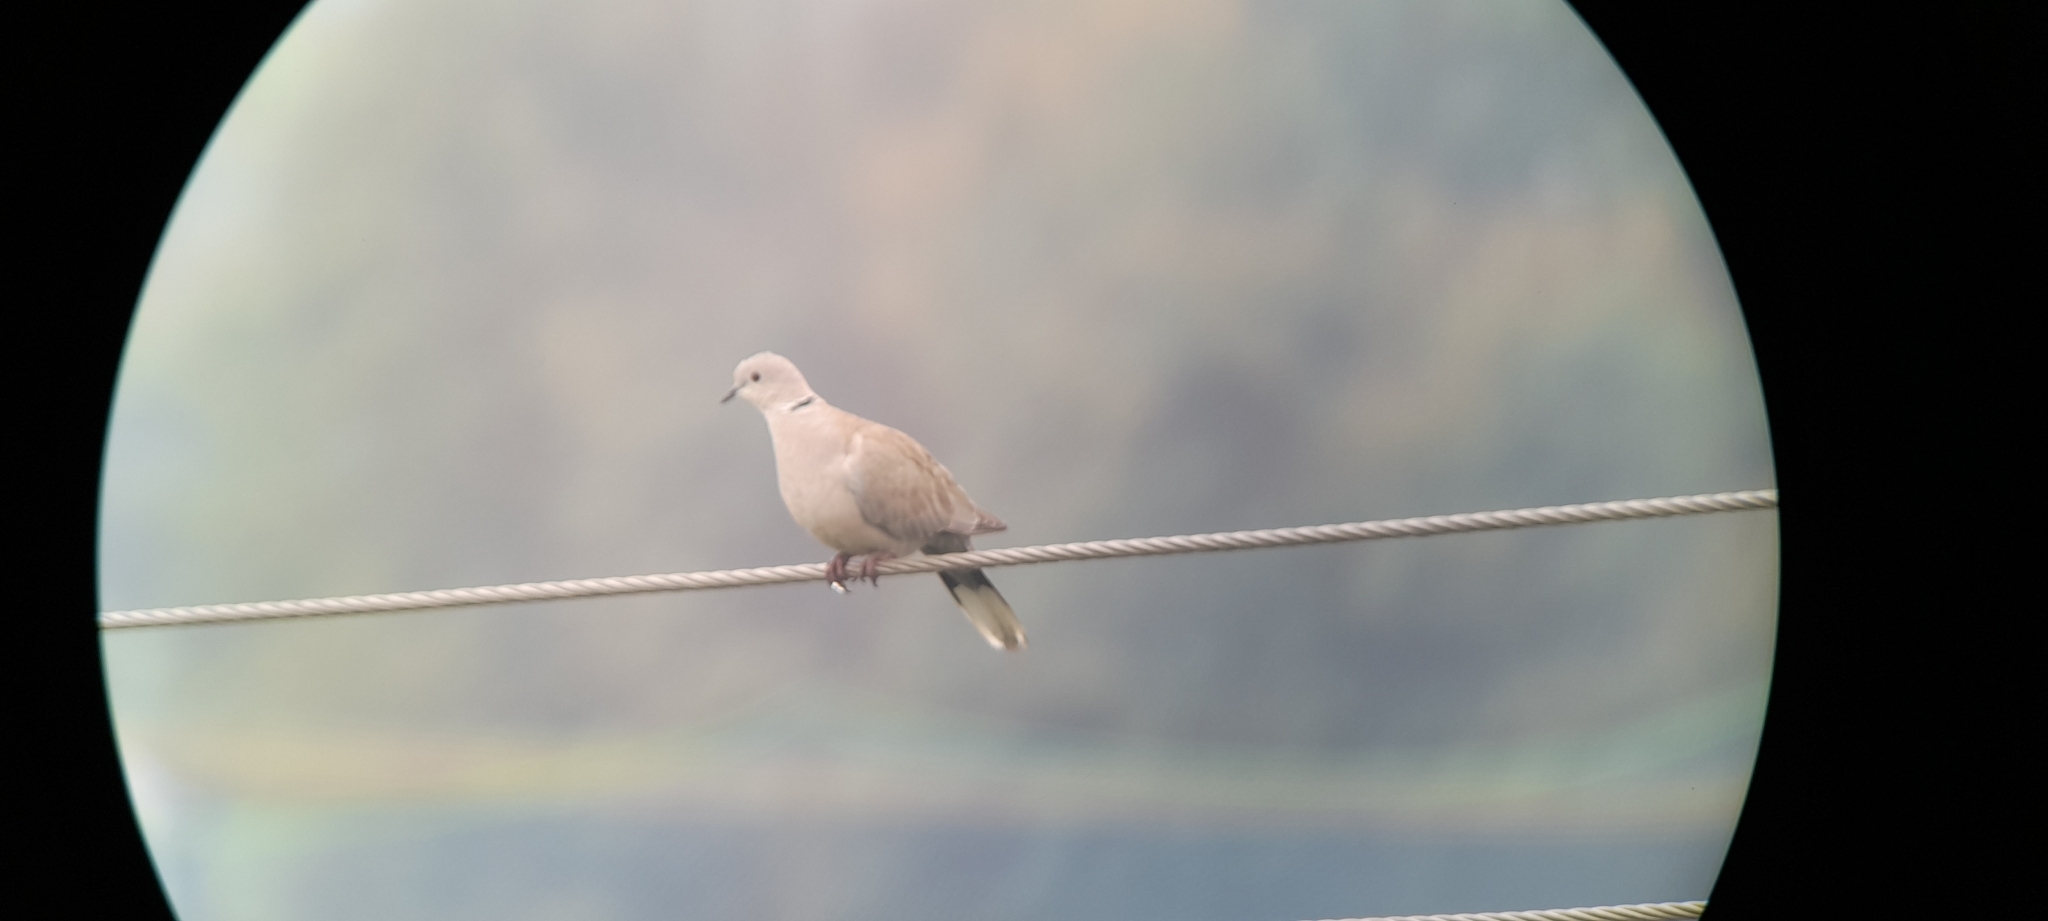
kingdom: Animalia
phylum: Chordata
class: Aves
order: Columbiformes
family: Columbidae
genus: Streptopelia
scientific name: Streptopelia decaocto
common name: Eurasian collared dove
